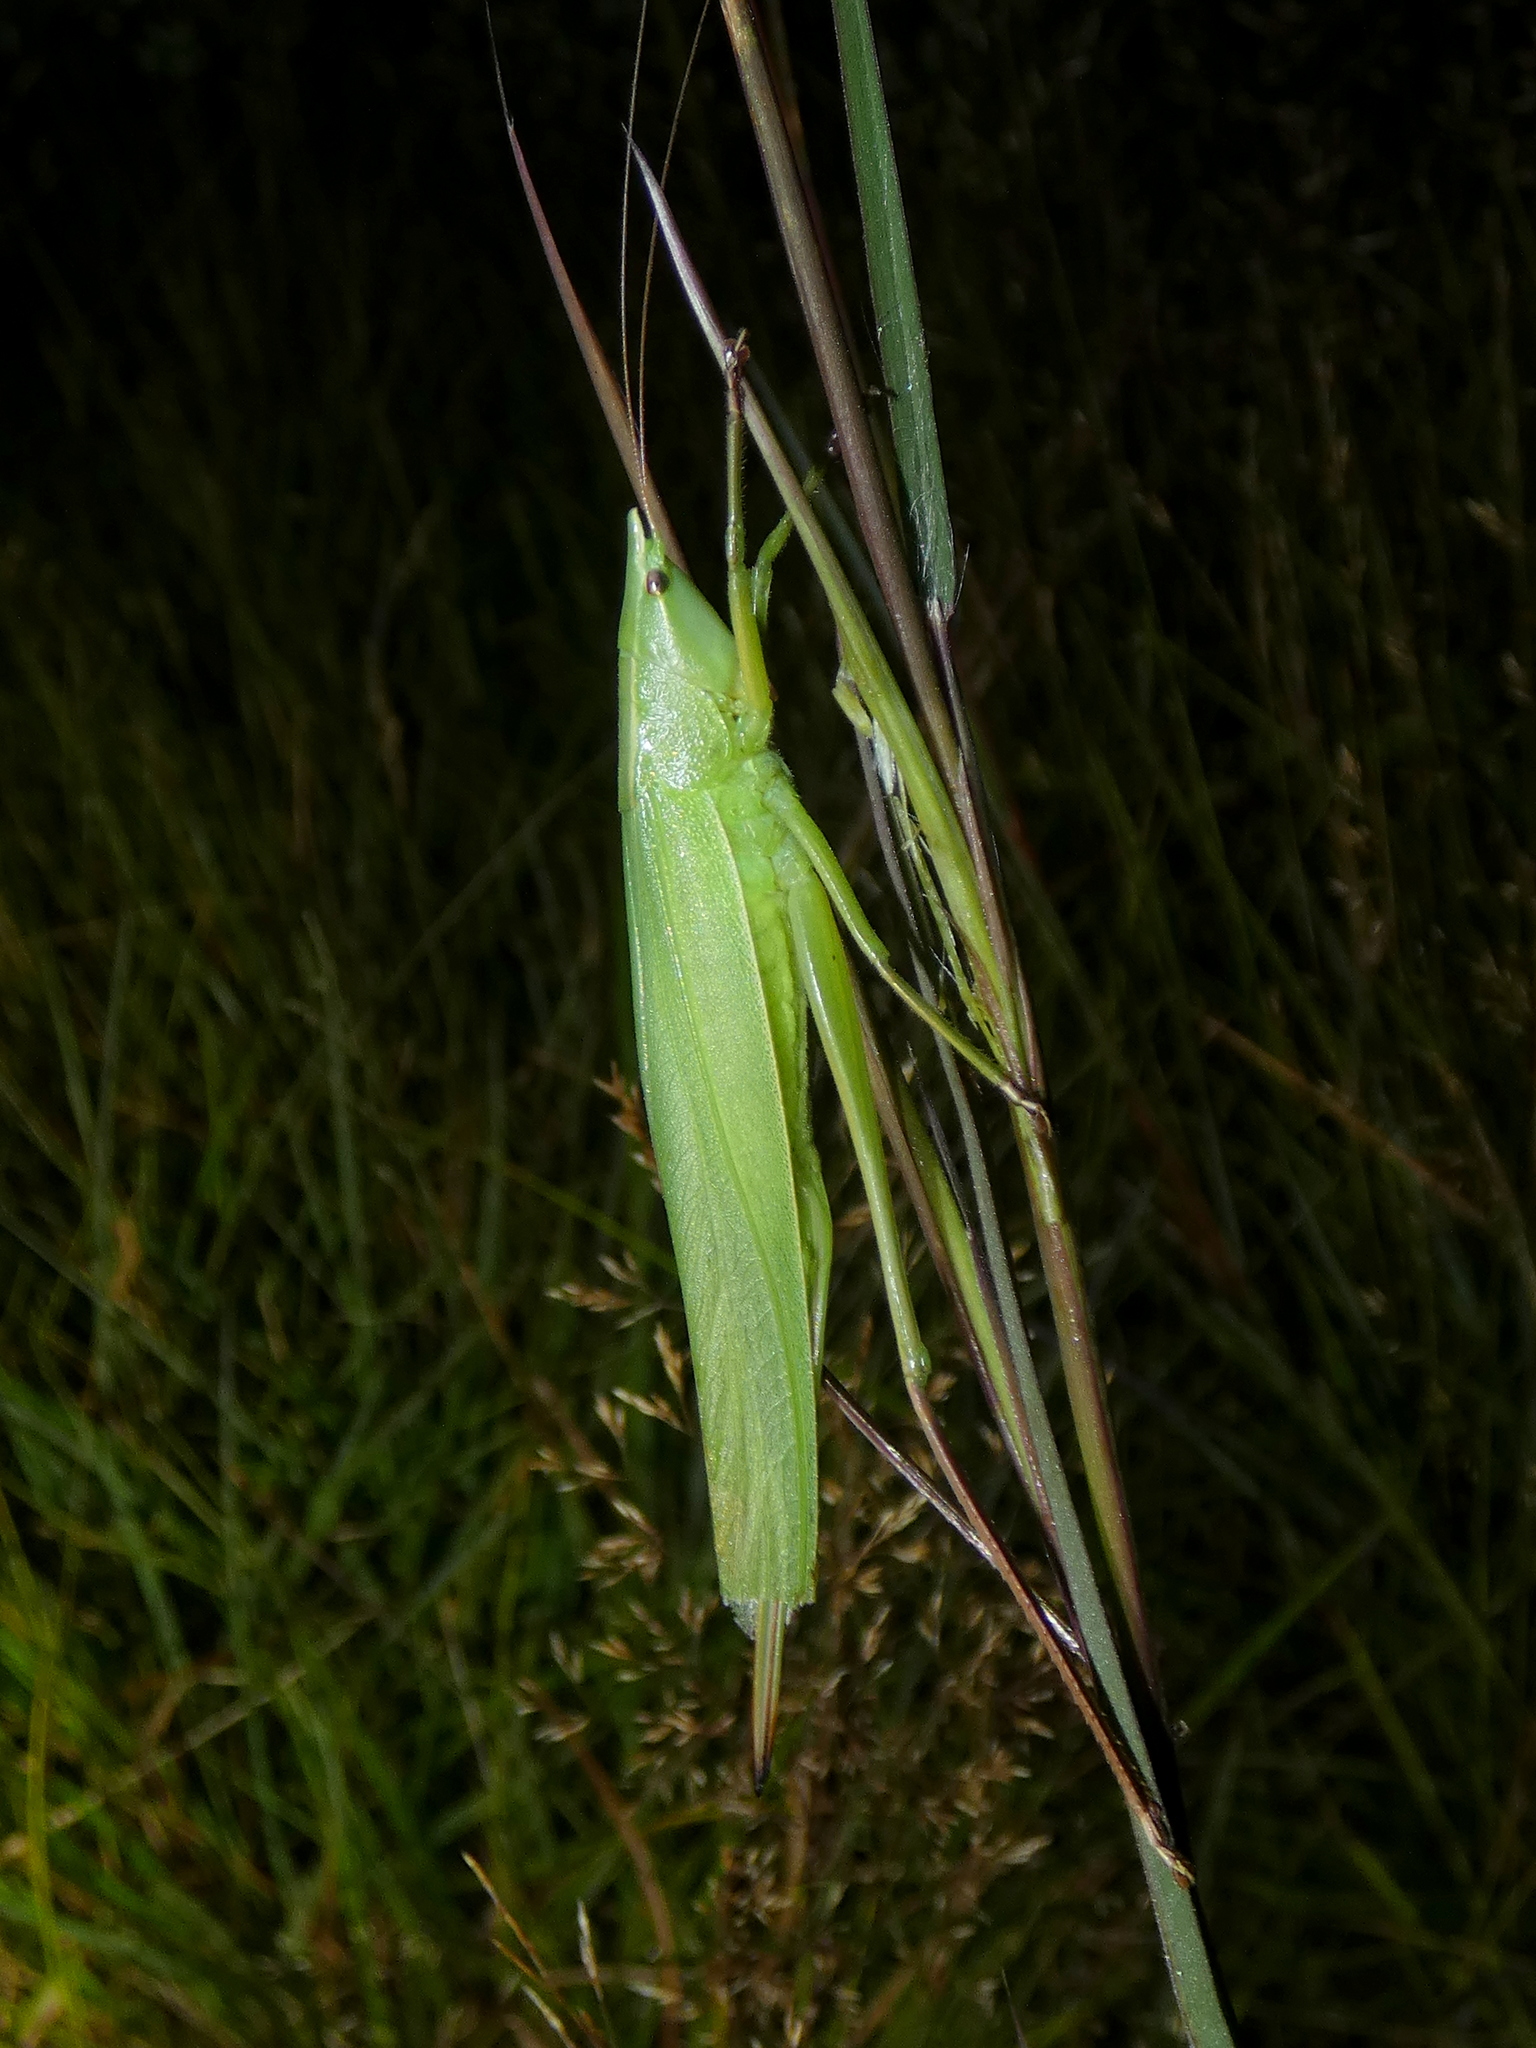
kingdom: Animalia
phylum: Arthropoda
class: Insecta
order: Orthoptera
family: Tettigoniidae
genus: Neoconocephalus
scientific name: Neoconocephalus ensiger
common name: Swordbearer
